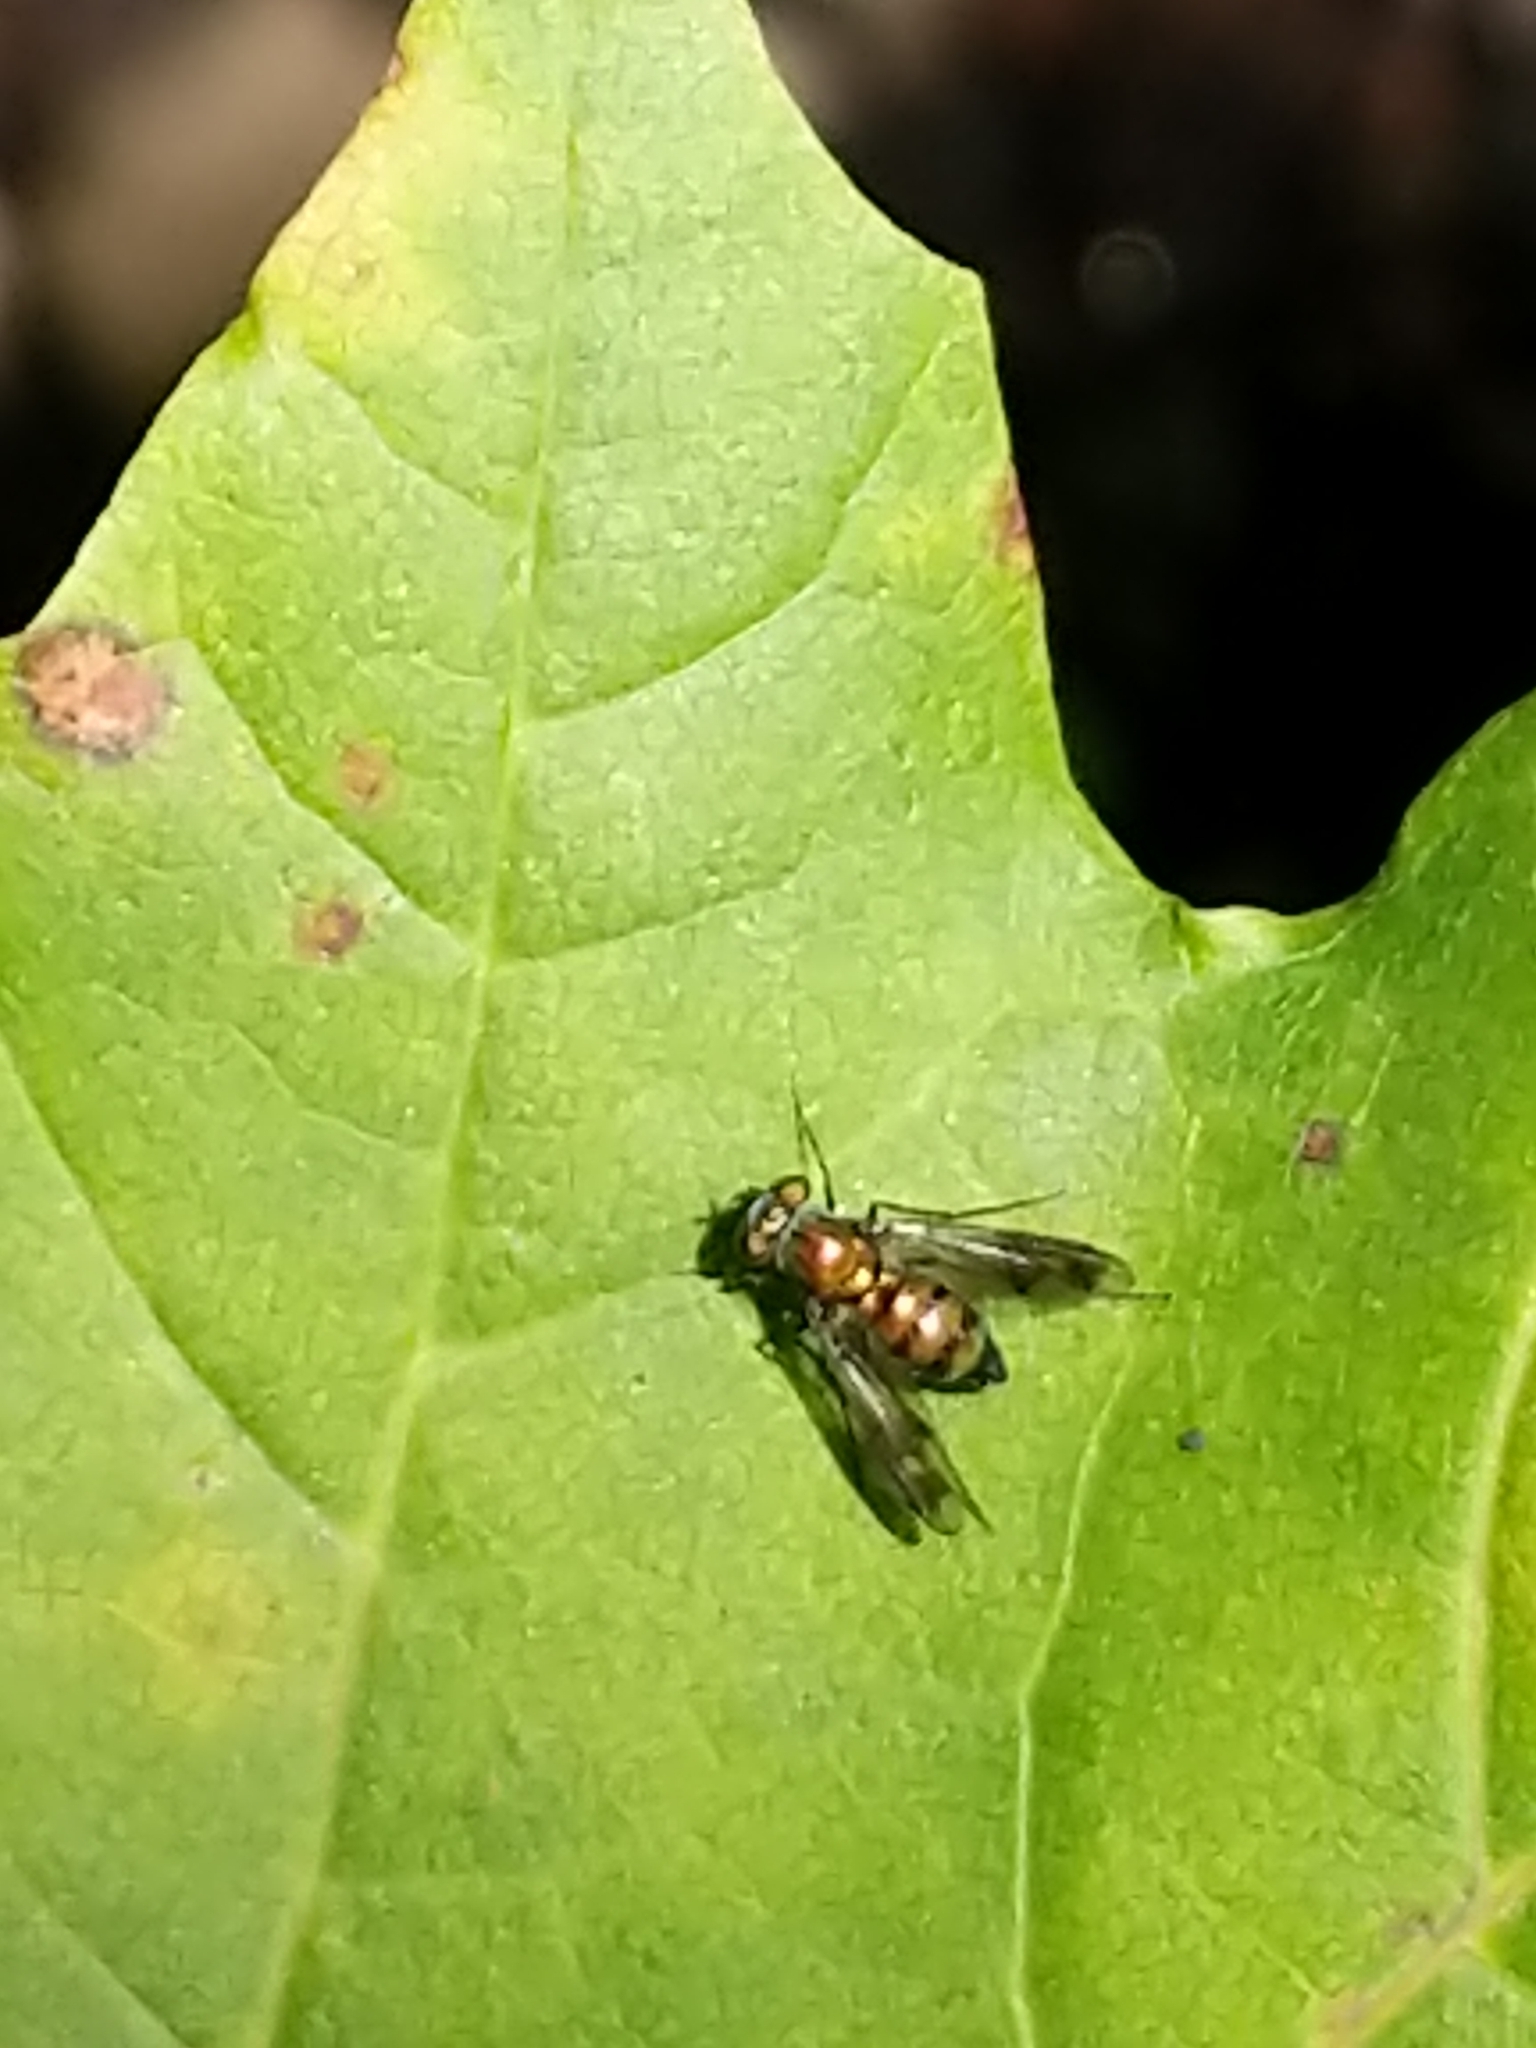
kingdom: Animalia
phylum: Arthropoda
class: Insecta
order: Diptera
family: Dolichopodidae
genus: Condylostylus
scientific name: Condylostylus patibulatus
